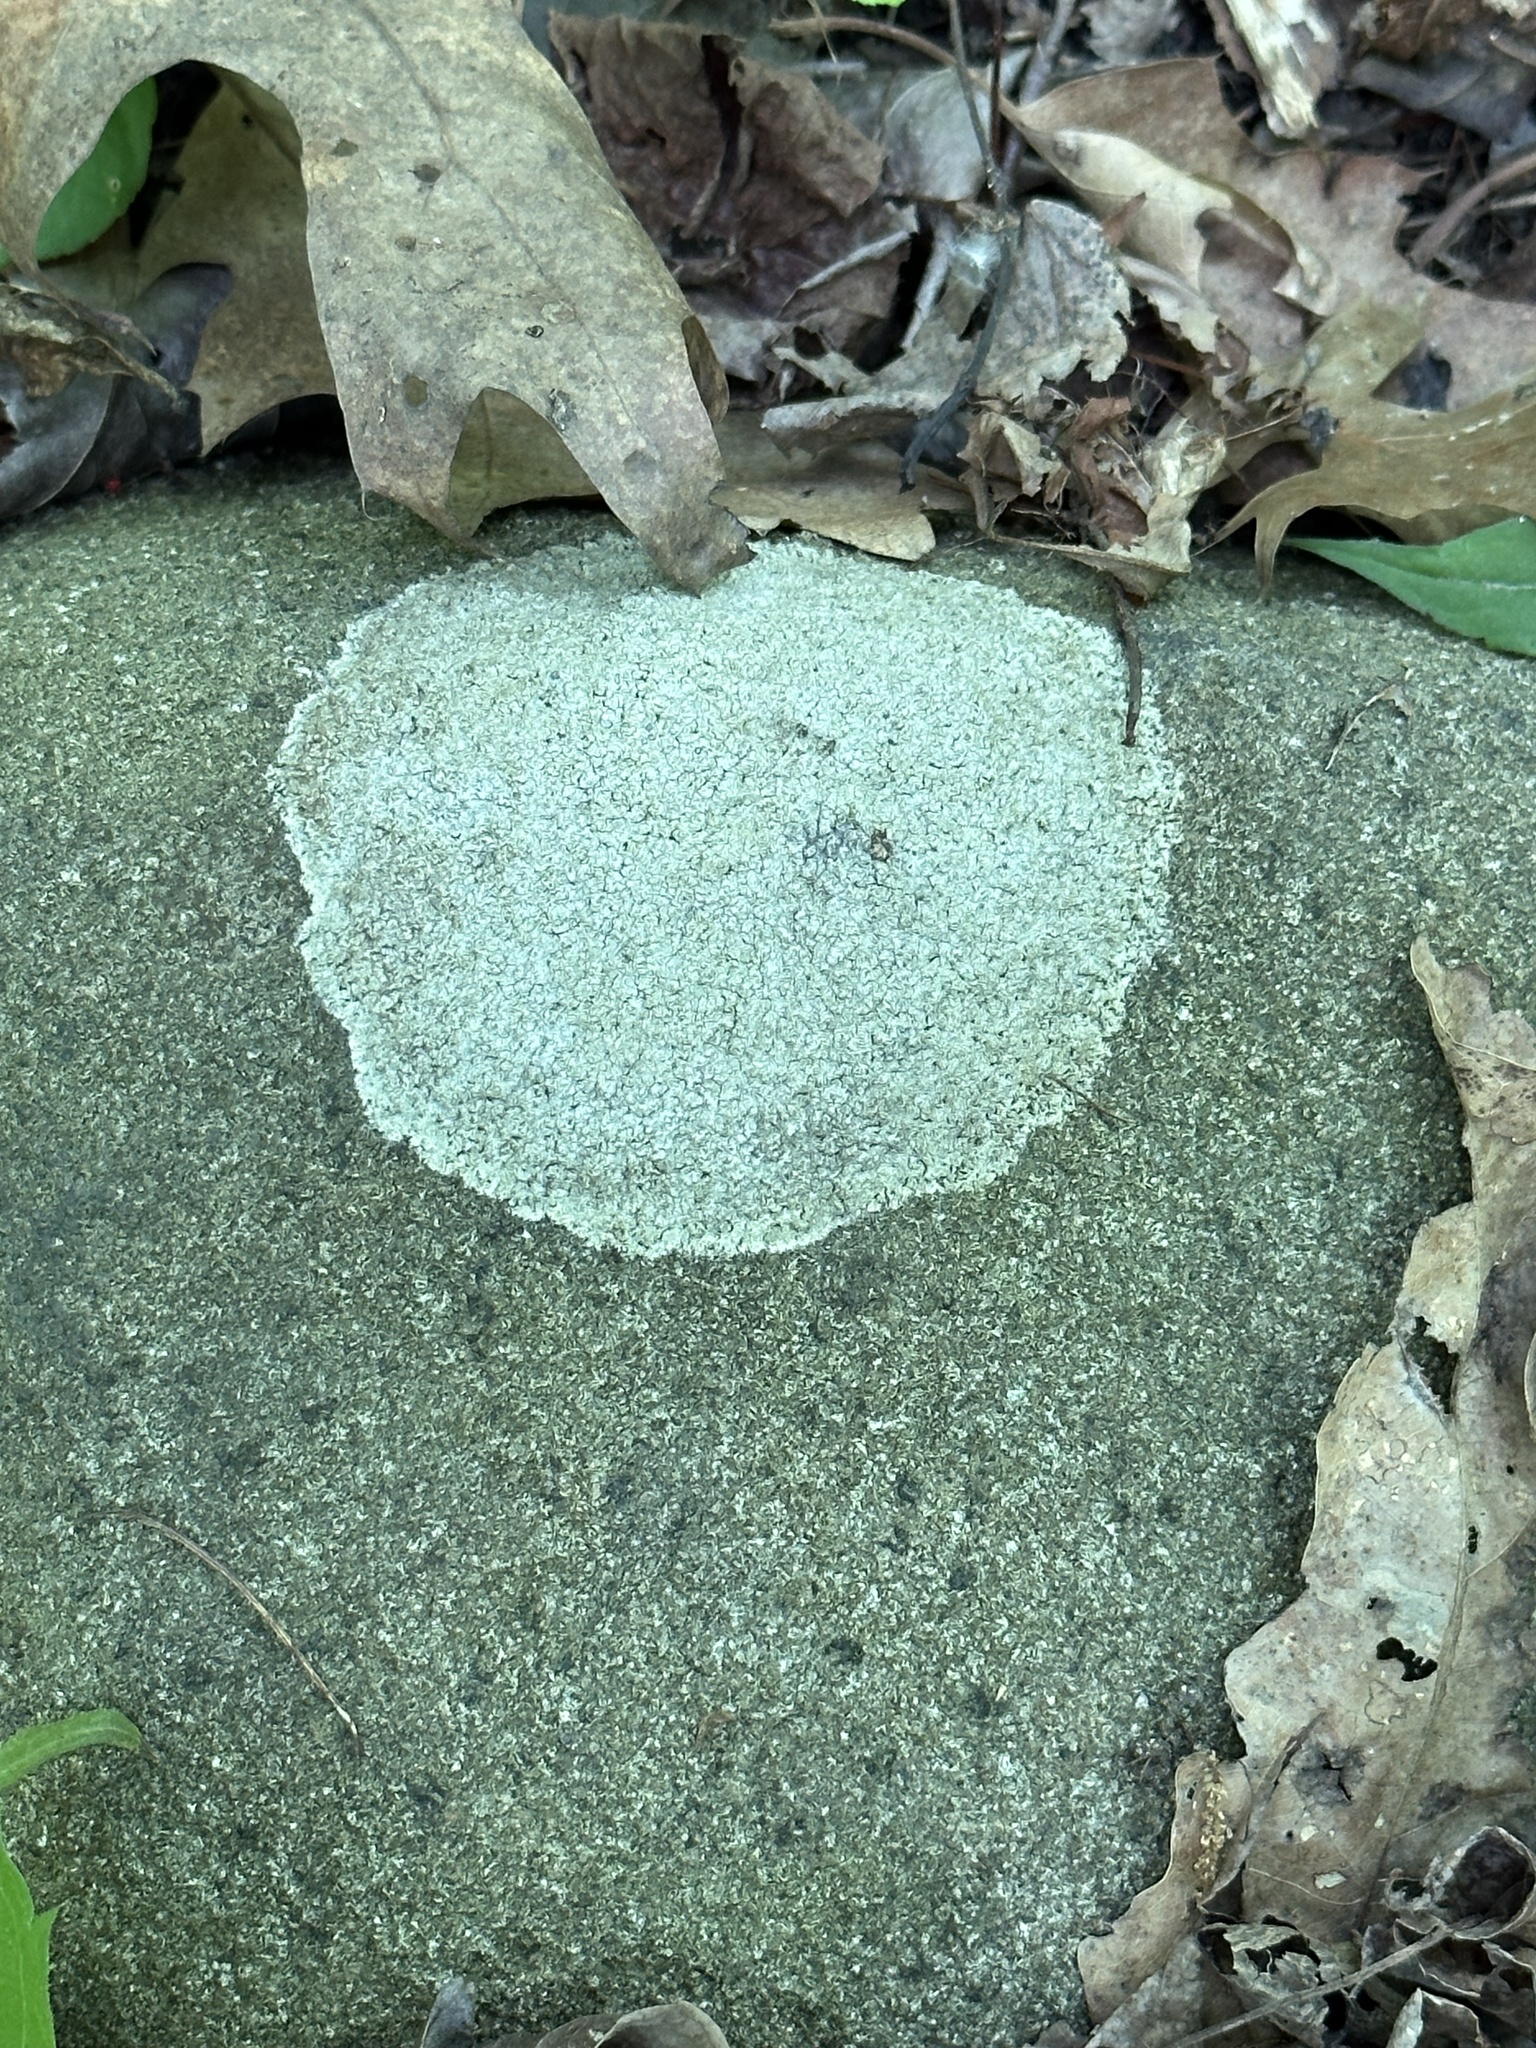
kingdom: Fungi
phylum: Ascomycota
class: Lecanoromycetes
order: Lecideales
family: Lecideaceae
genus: Porpidia
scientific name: Porpidia albocaerulescens
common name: Smokey-eyed boulder lichen
